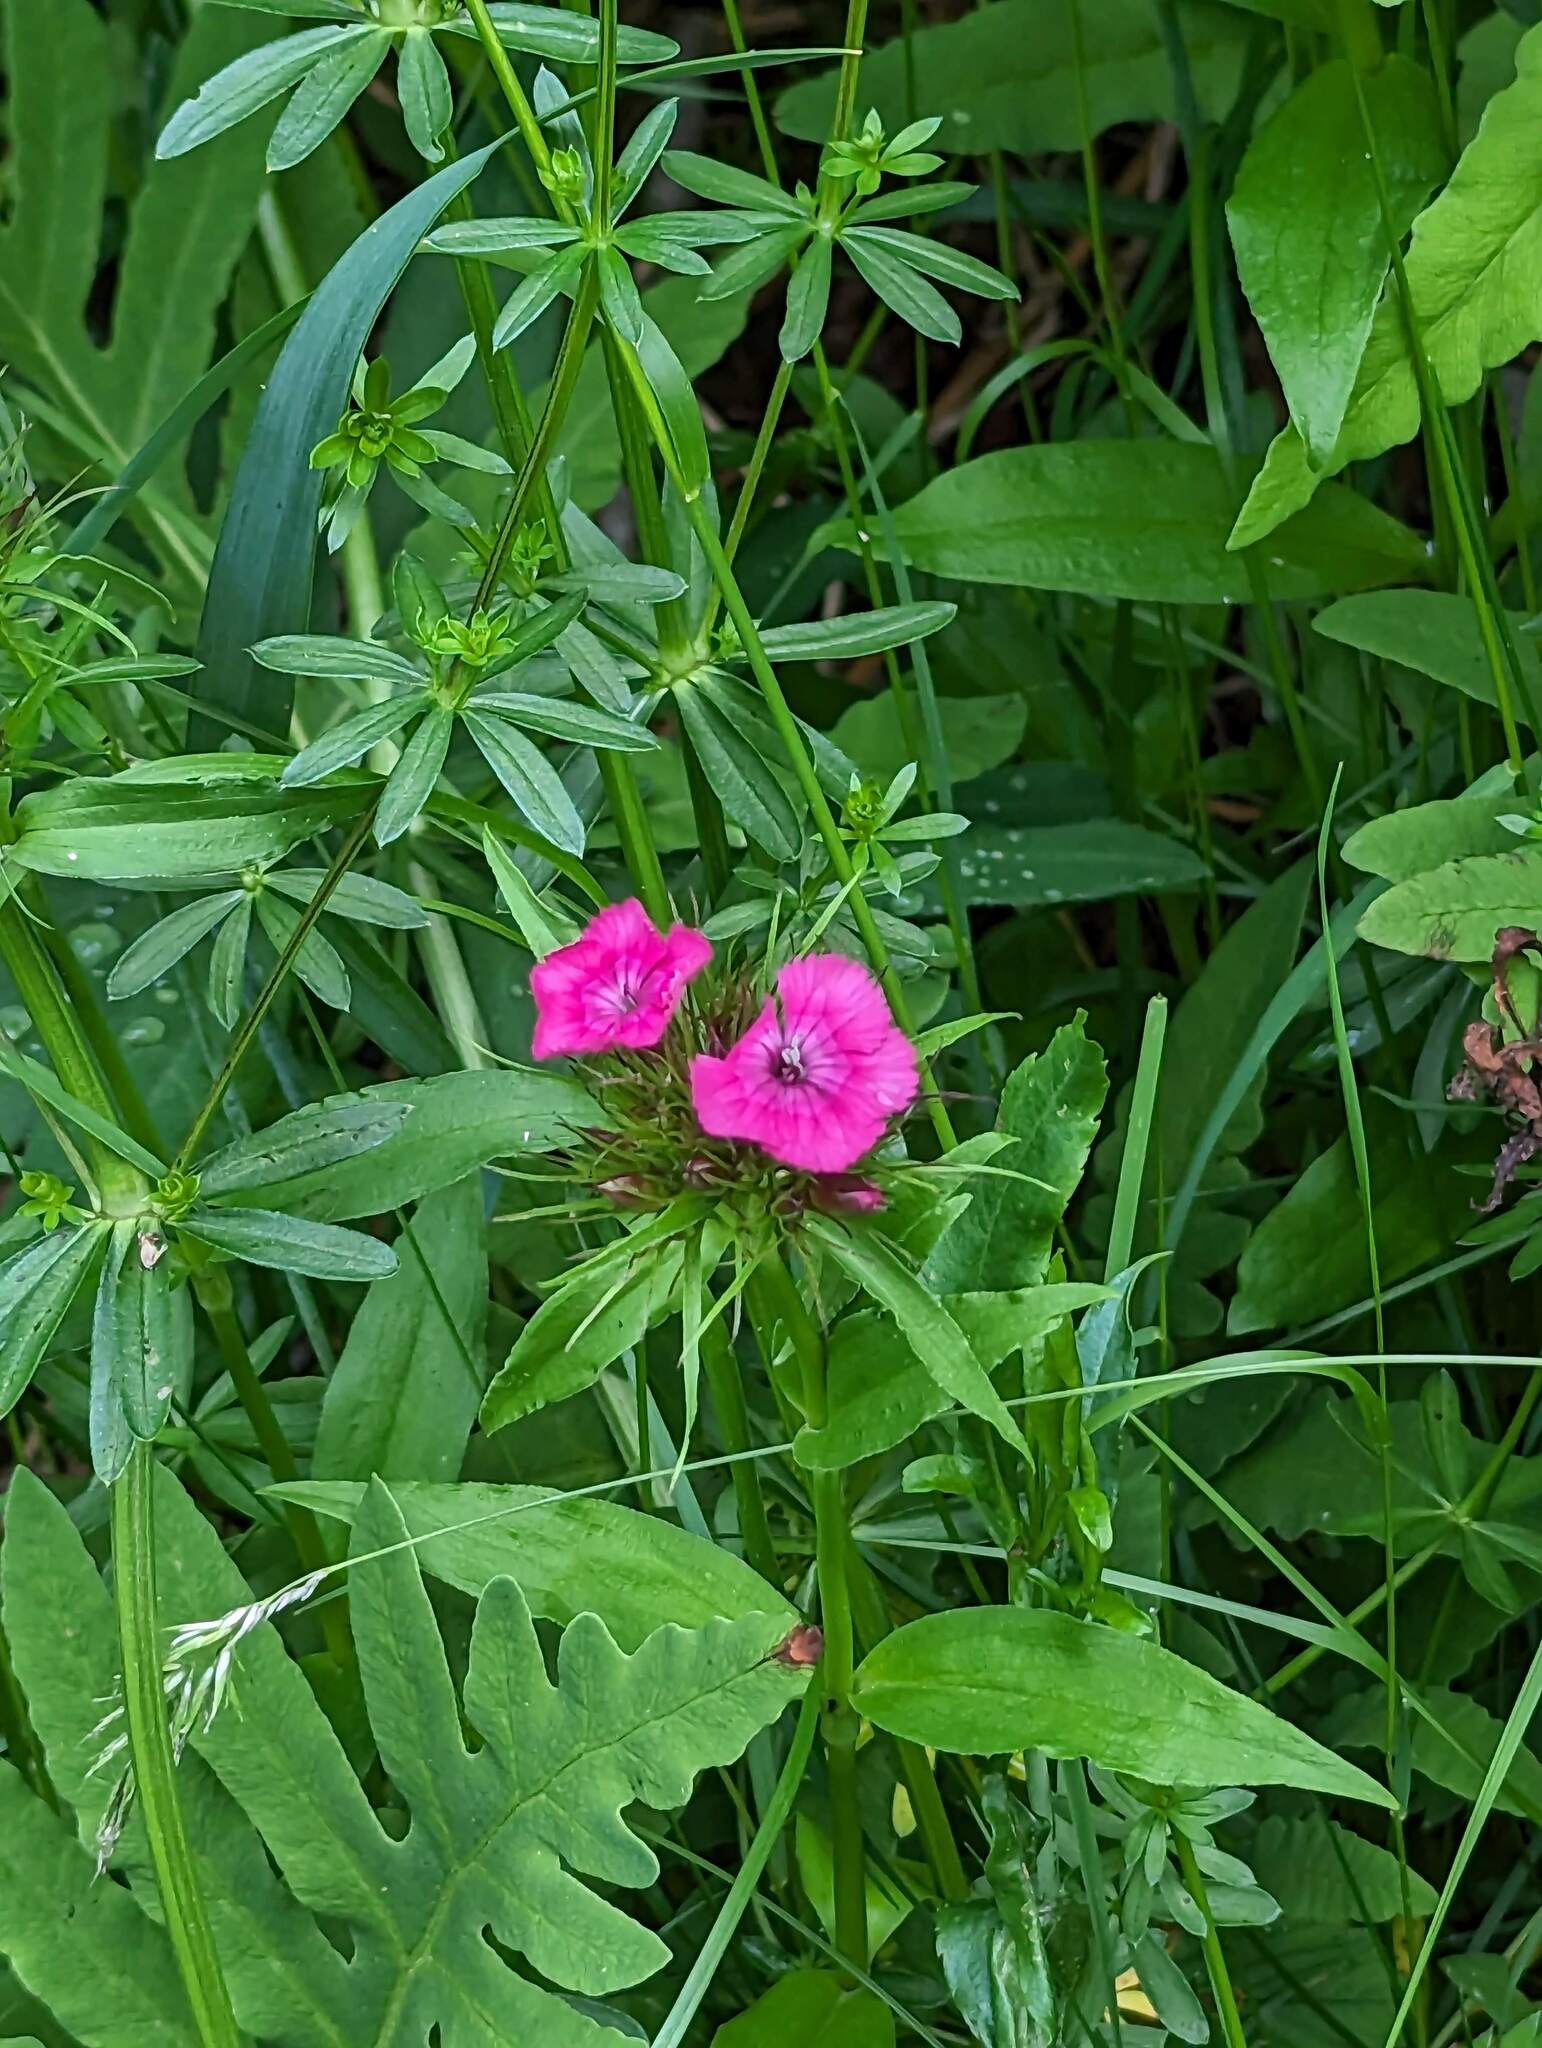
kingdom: Plantae
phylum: Tracheophyta
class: Magnoliopsida
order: Caryophyllales
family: Caryophyllaceae
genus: Dianthus
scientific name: Dianthus barbatus
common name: Sweet-william
